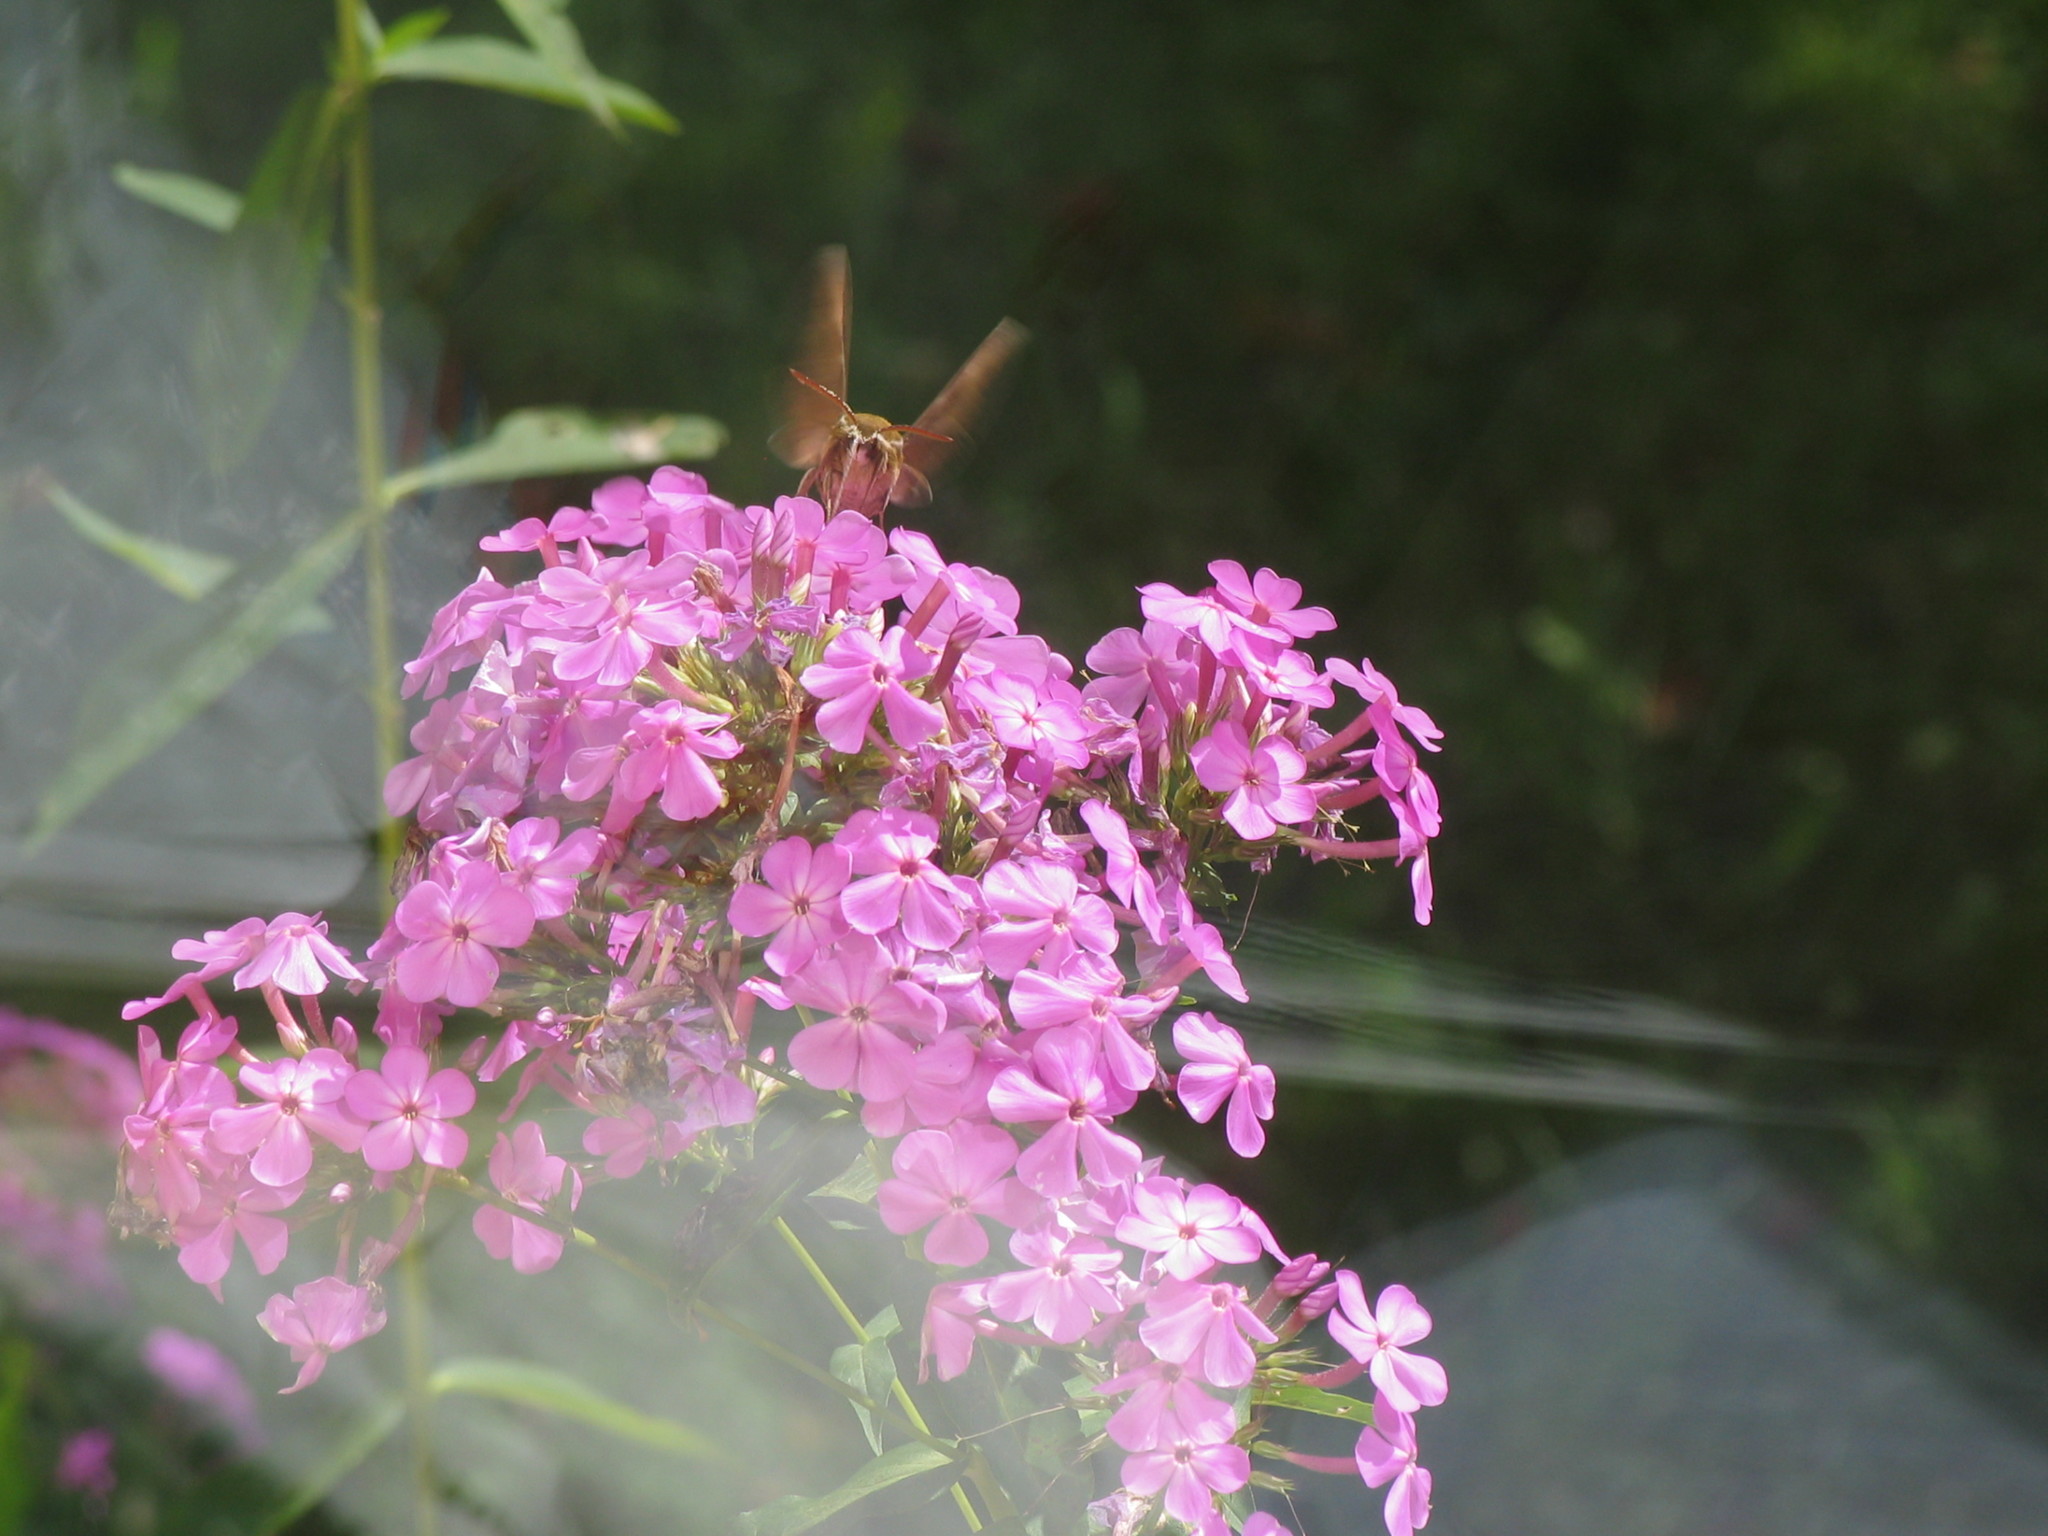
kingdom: Animalia
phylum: Arthropoda
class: Insecta
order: Lepidoptera
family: Sphingidae
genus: Hyles
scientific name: Hyles gallii
